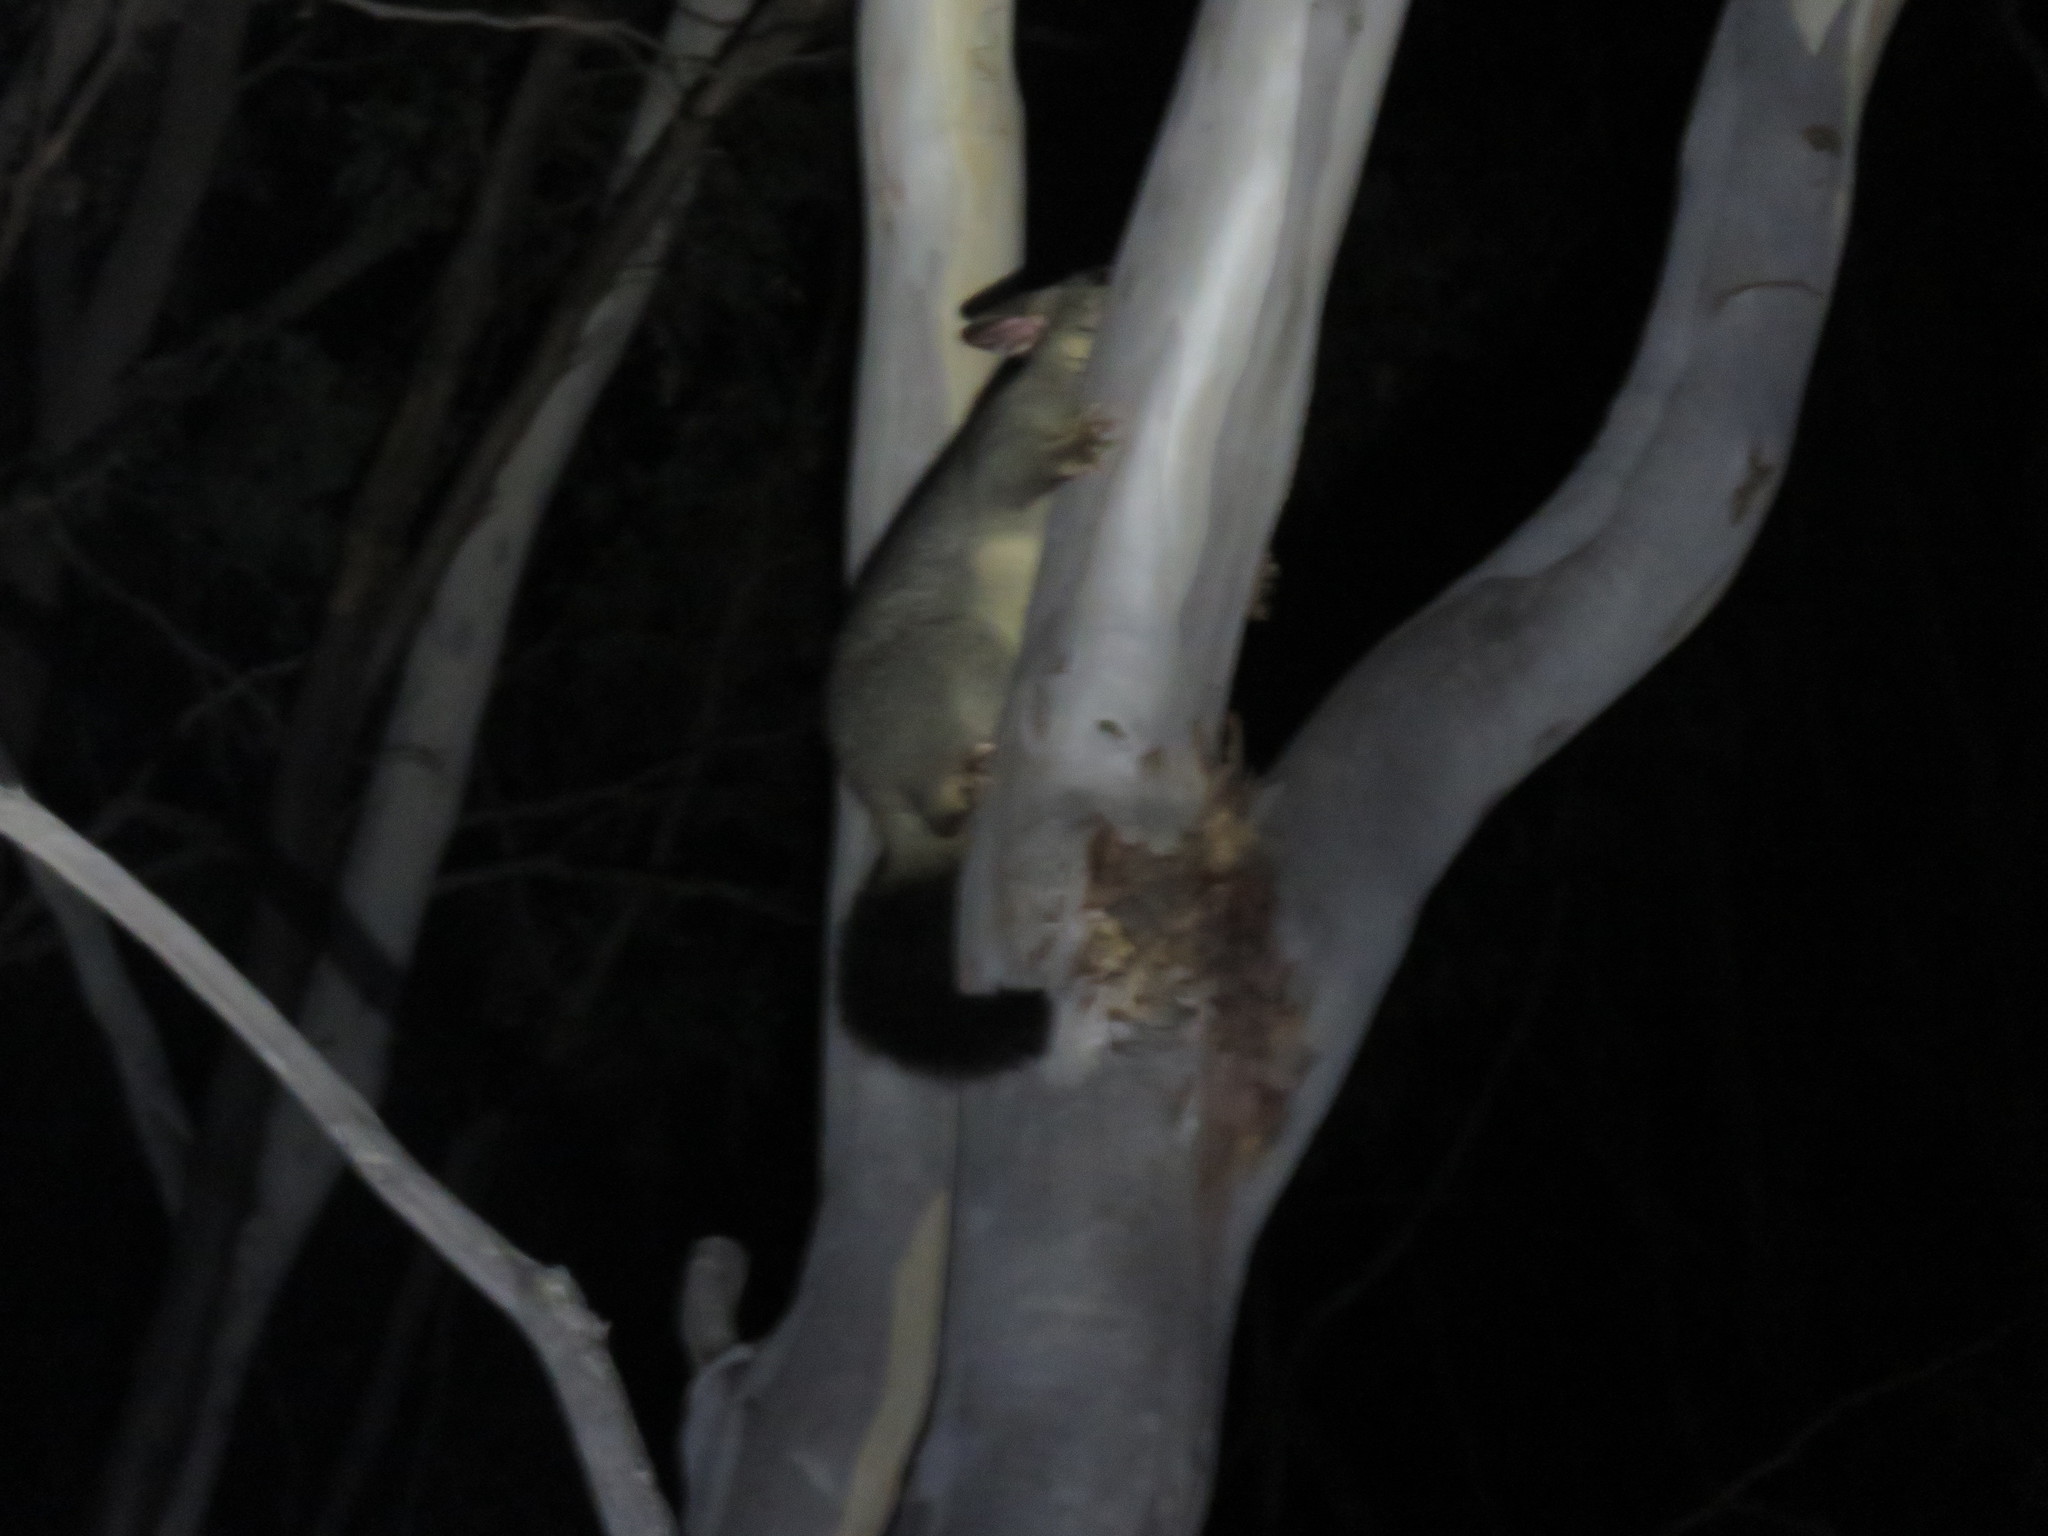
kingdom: Animalia
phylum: Chordata
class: Mammalia
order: Diprotodontia
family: Phalangeridae
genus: Trichosurus
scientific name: Trichosurus vulpecula
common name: Common brushtail
